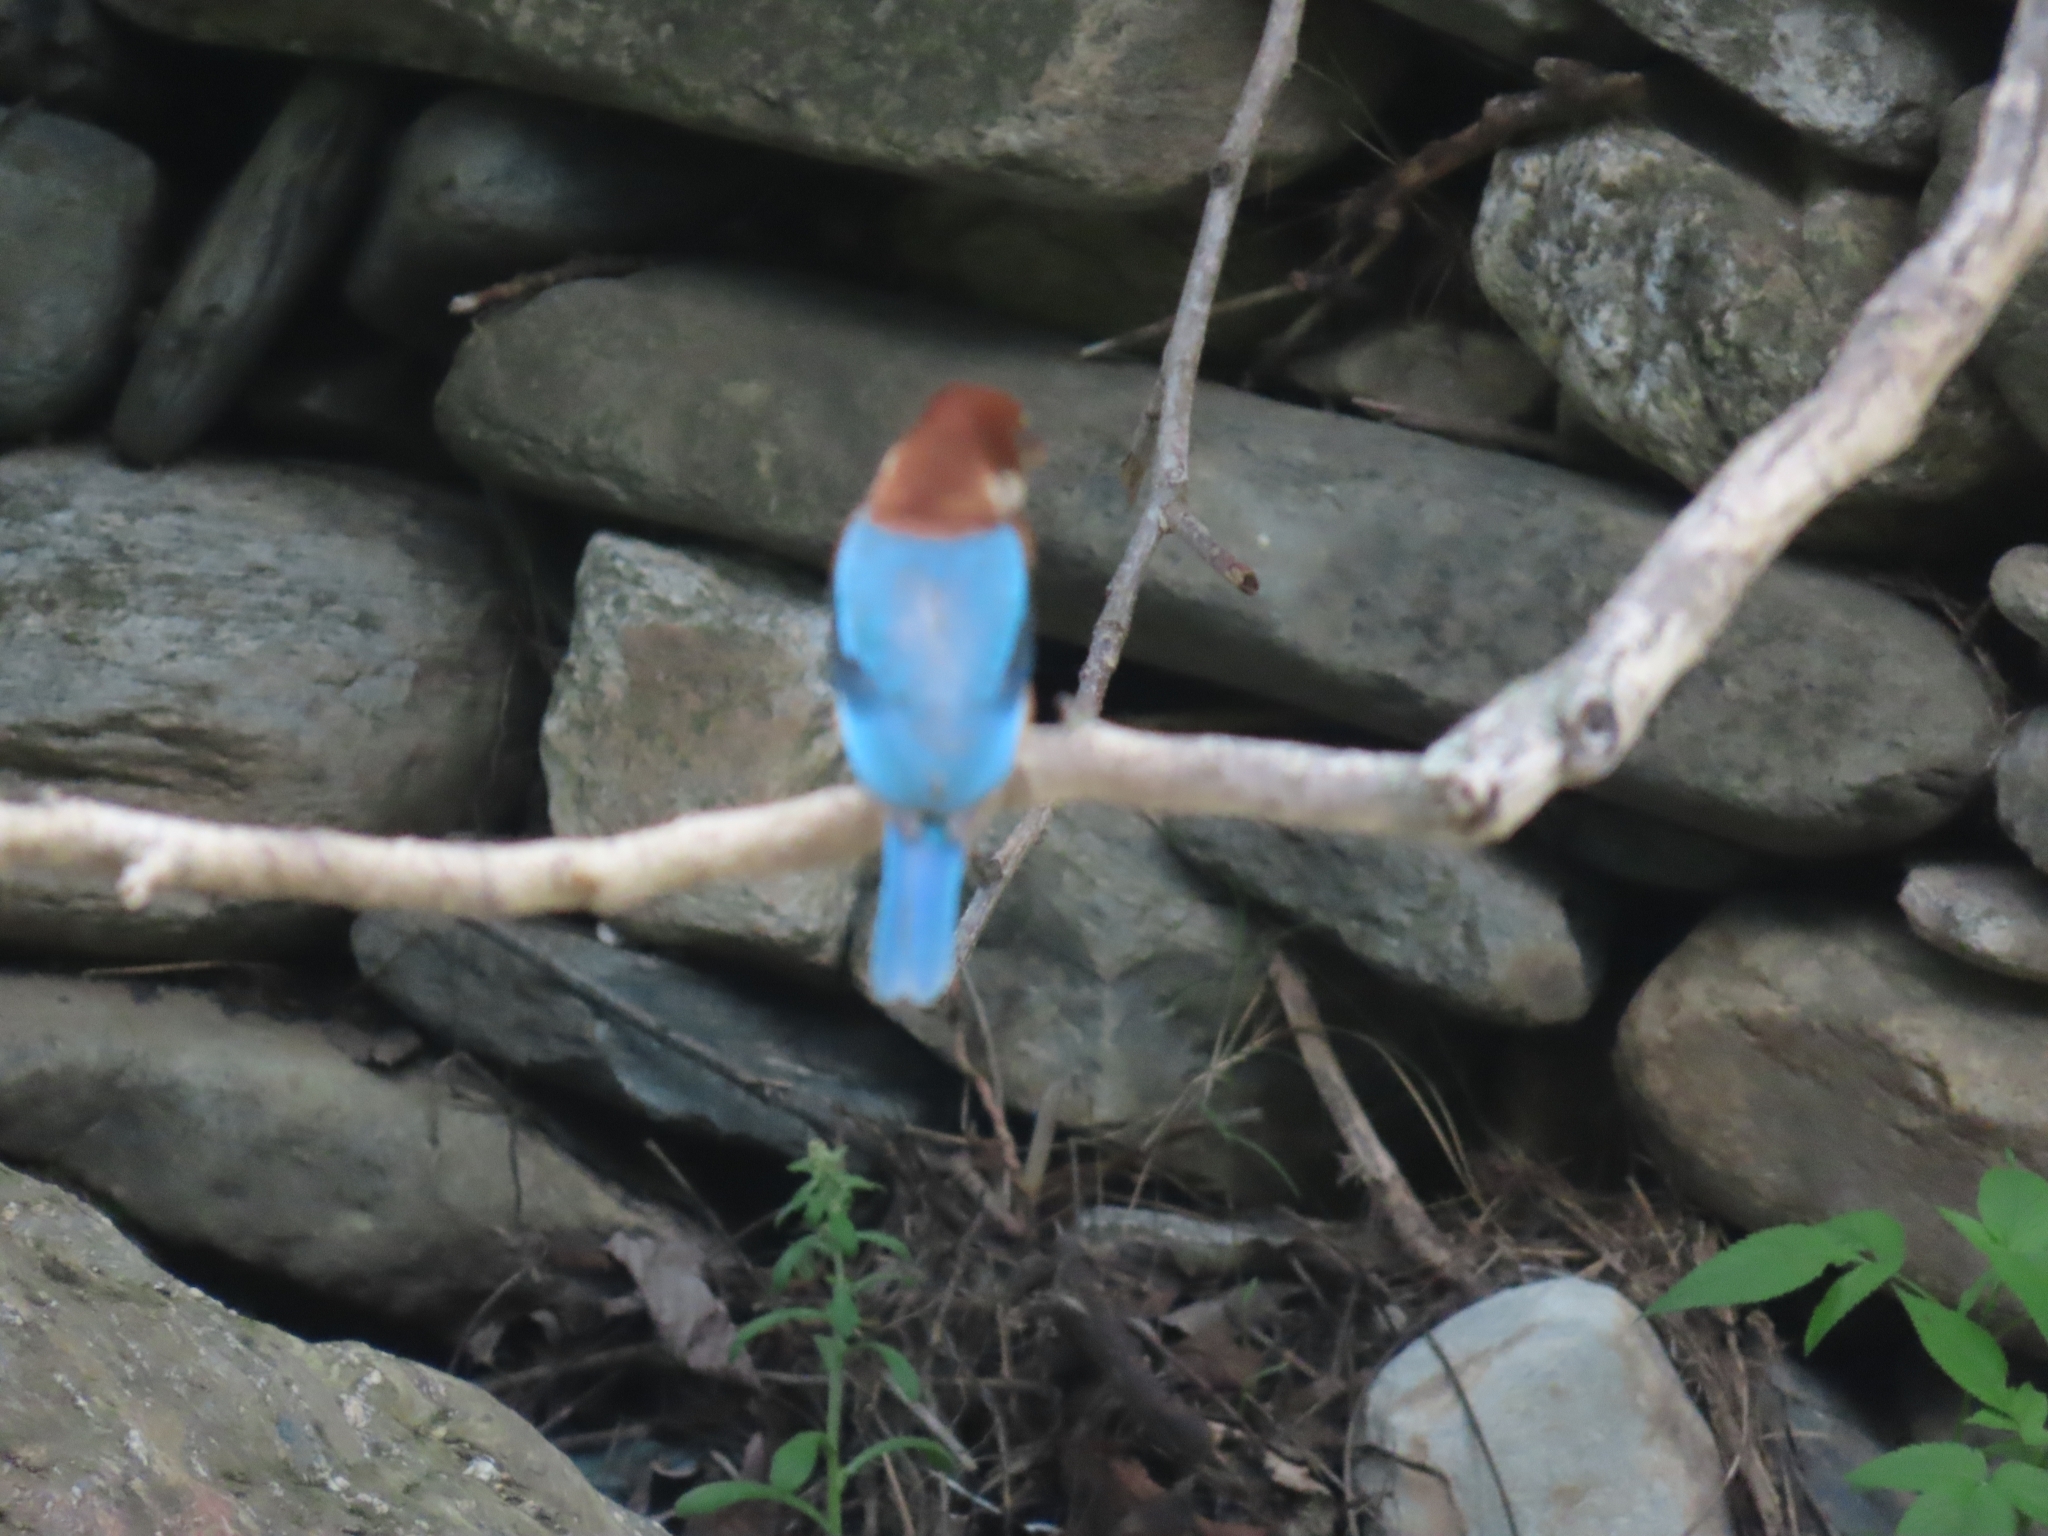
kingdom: Animalia
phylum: Chordata
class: Aves
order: Coraciiformes
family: Alcedinidae
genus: Halcyon
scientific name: Halcyon smyrnensis
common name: White-throated kingfisher
